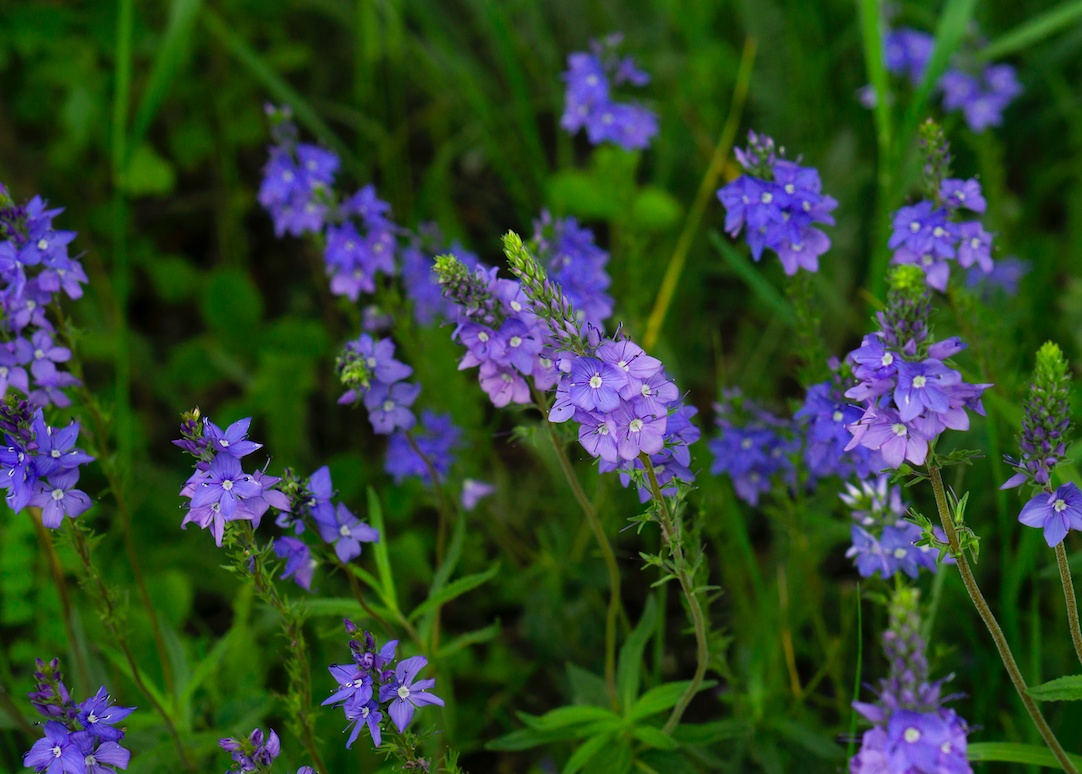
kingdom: Plantae
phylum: Tracheophyta
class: Magnoliopsida
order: Lamiales
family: Plantaginaceae
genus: Veronica
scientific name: Veronica teucrium
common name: Large speedwell
